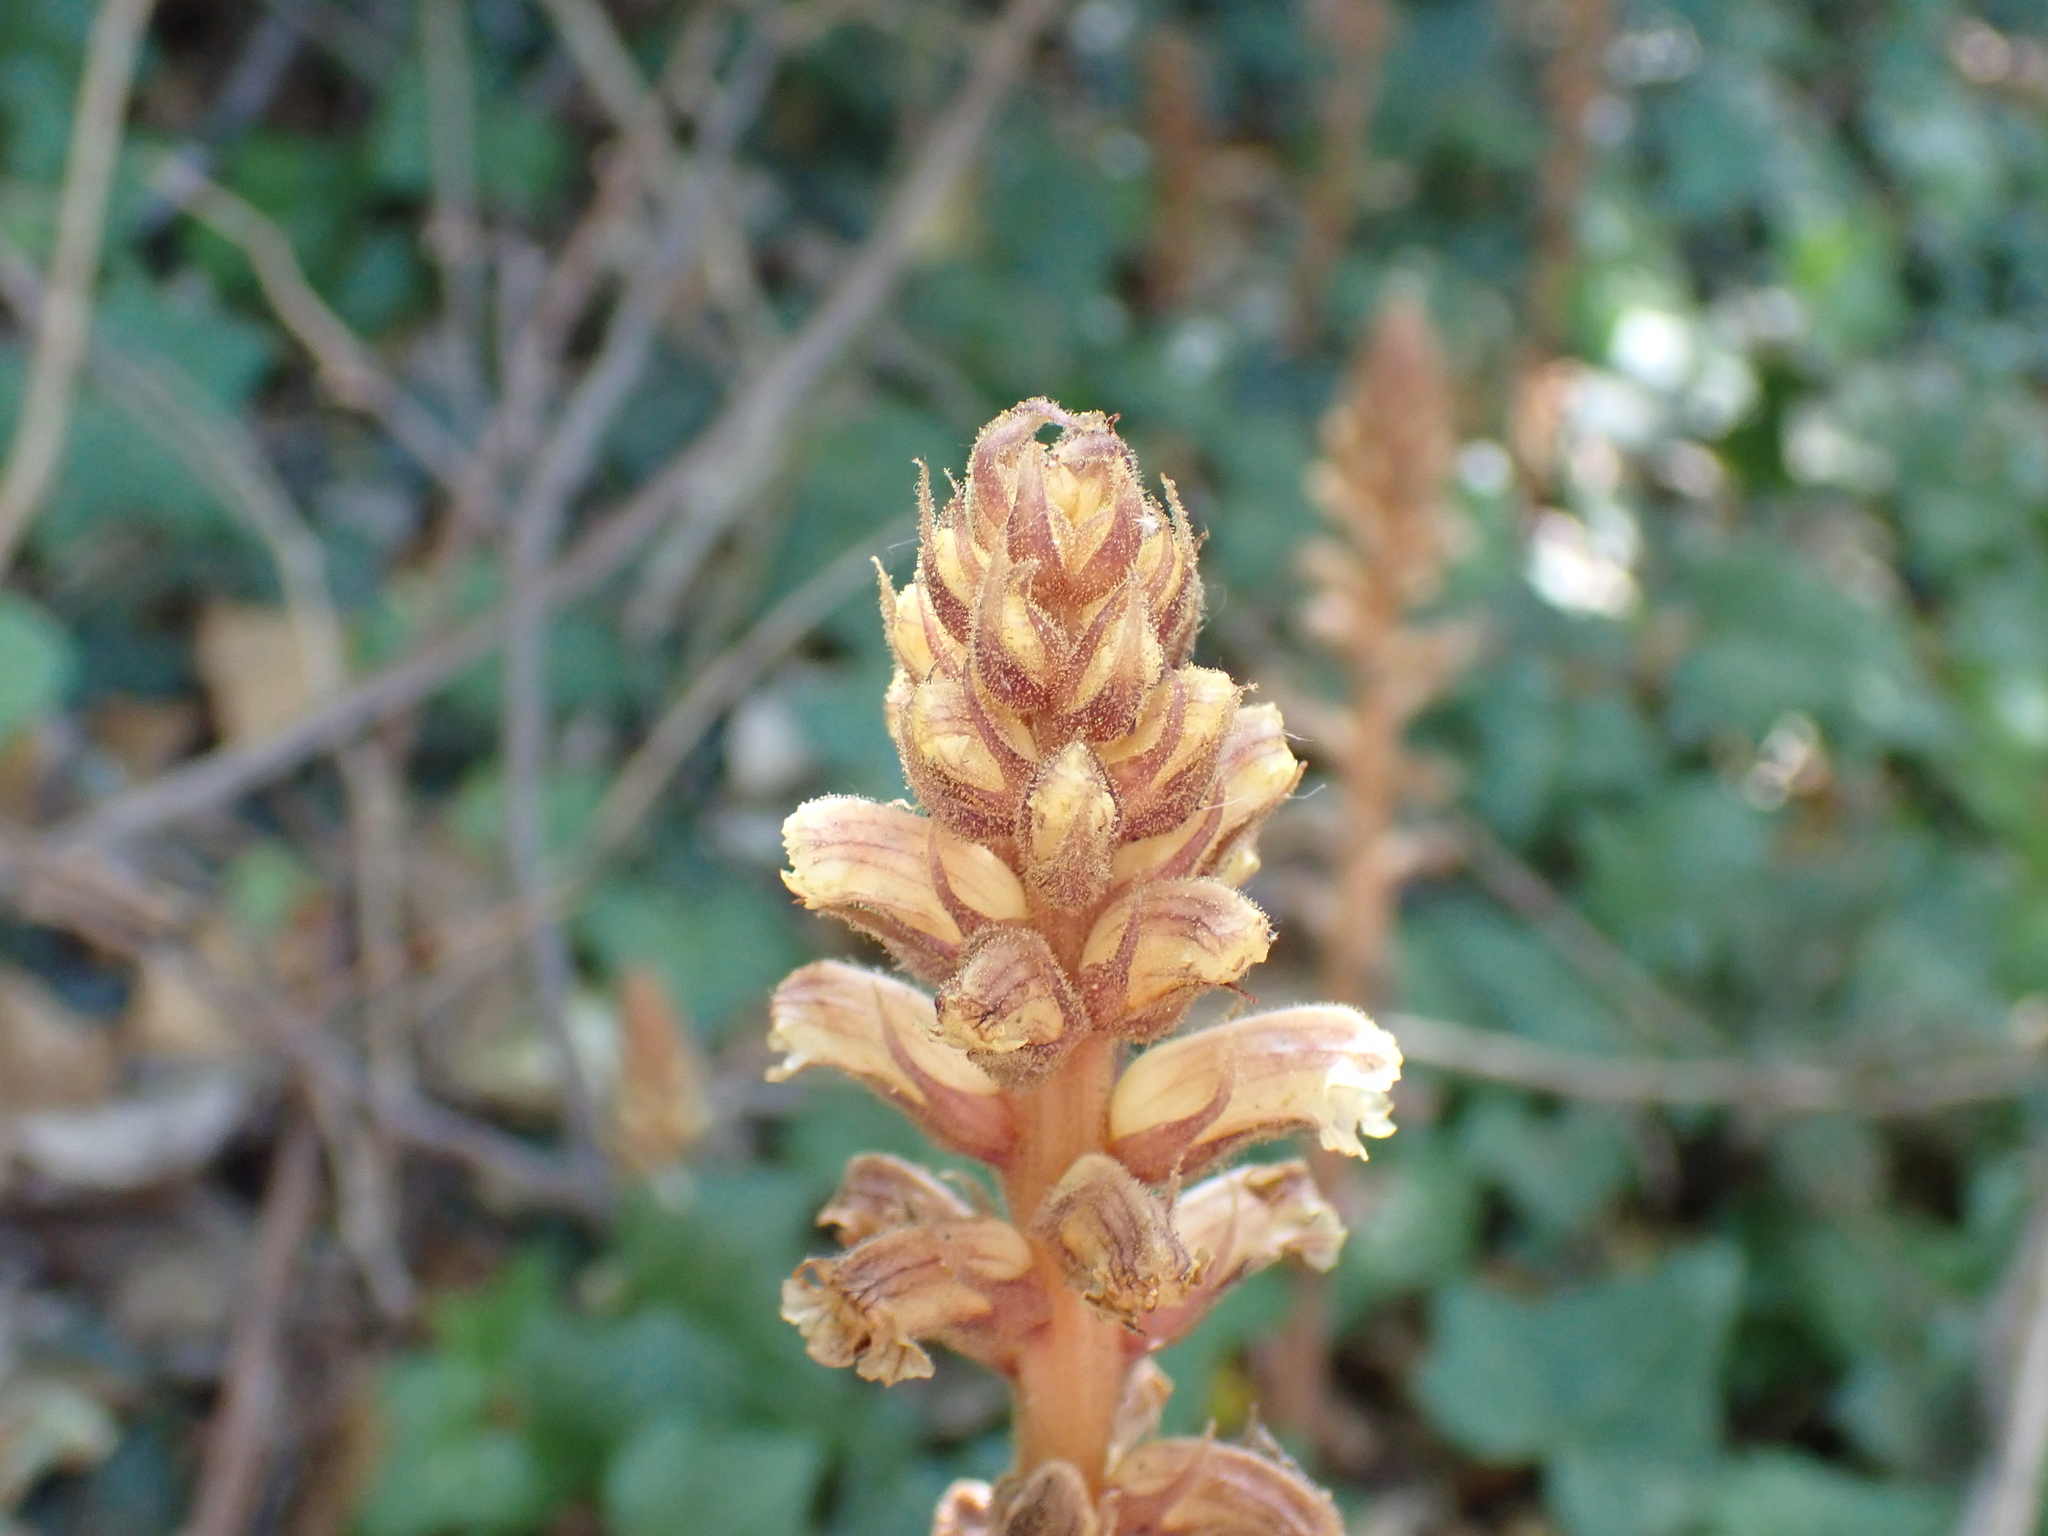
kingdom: Plantae
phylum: Tracheophyta
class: Magnoliopsida
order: Lamiales
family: Orobanchaceae
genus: Orobanche
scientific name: Orobanche hederae
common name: Ivy broomrape
